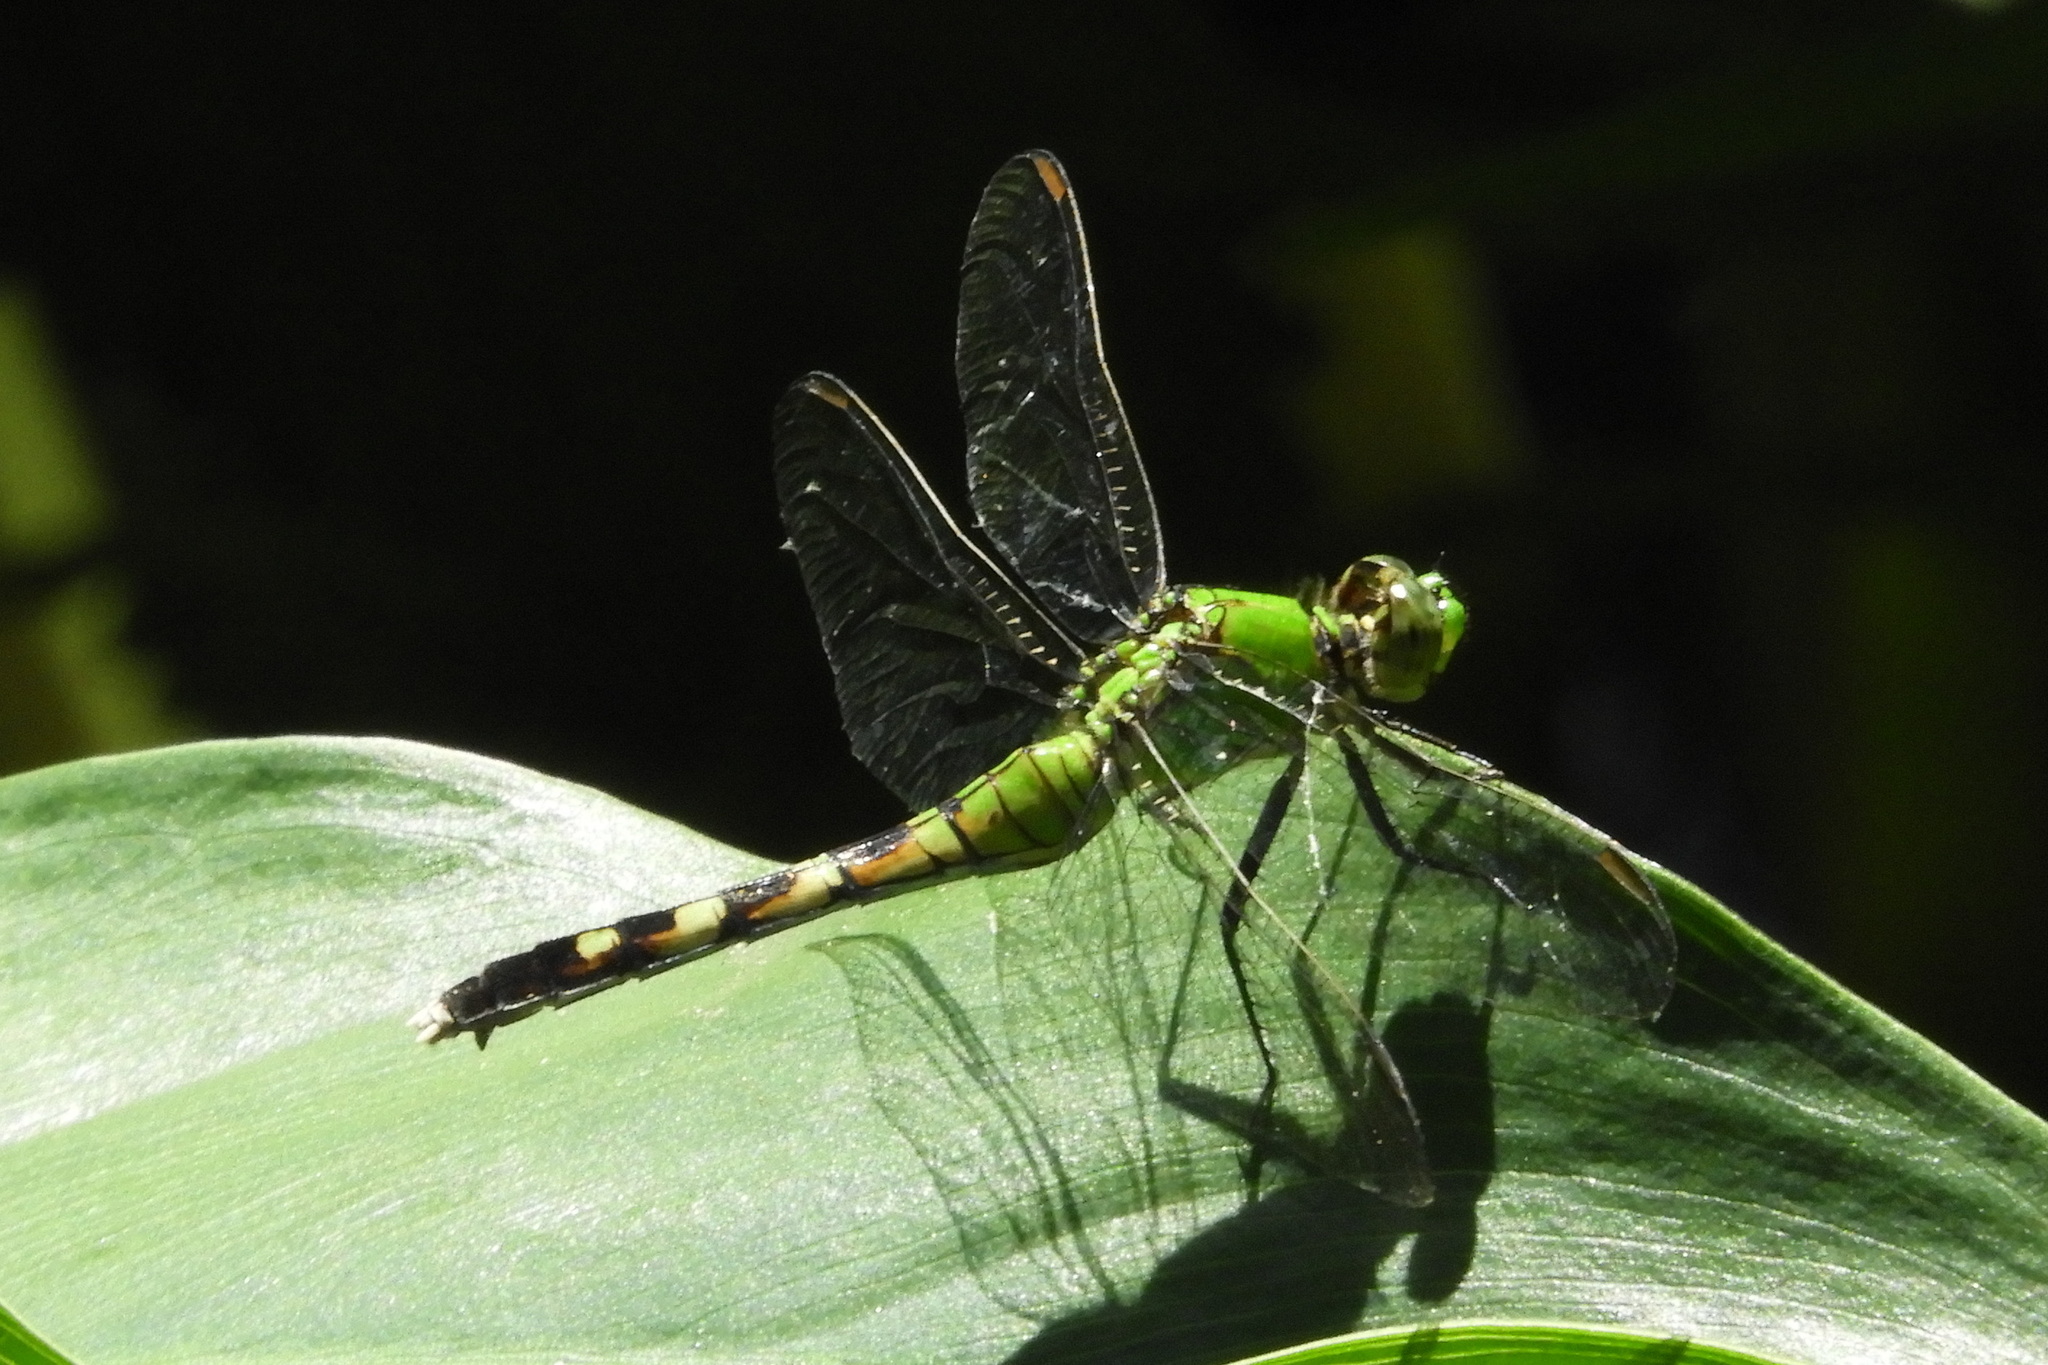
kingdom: Animalia
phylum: Arthropoda
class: Insecta
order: Odonata
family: Libellulidae
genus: Erythemis
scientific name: Erythemis simplicicollis
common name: Eastern pondhawk
